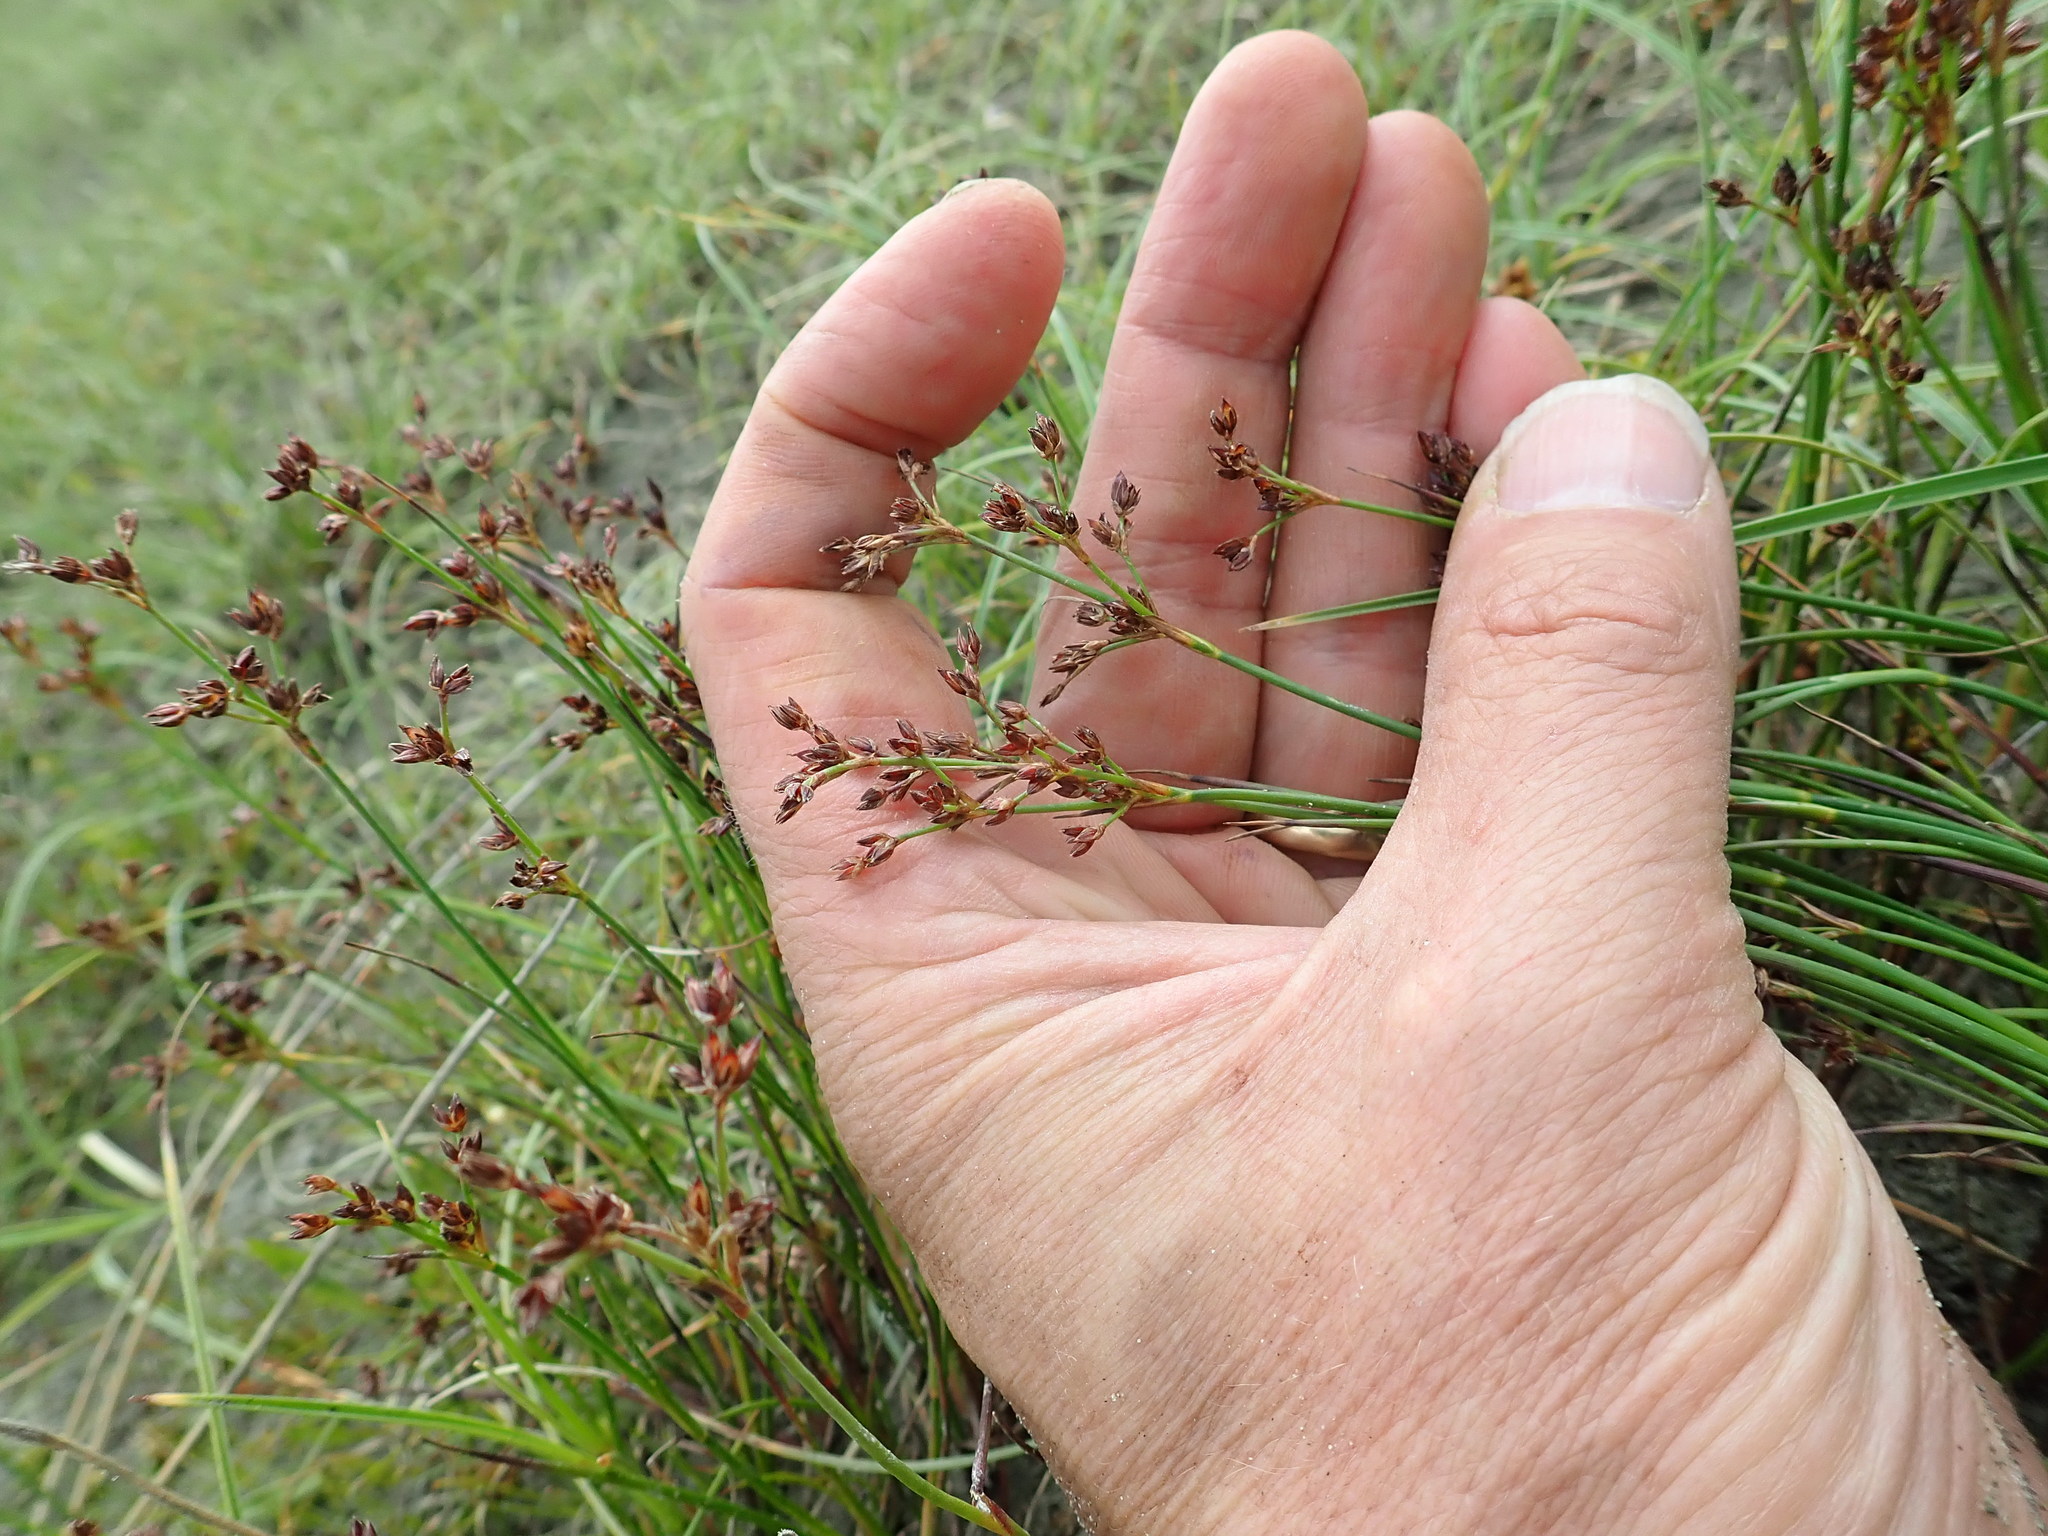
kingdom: Plantae
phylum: Tracheophyta
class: Liliopsida
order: Poales
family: Juncaceae
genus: Juncus
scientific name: Juncus articulatus
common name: Jointed rush
